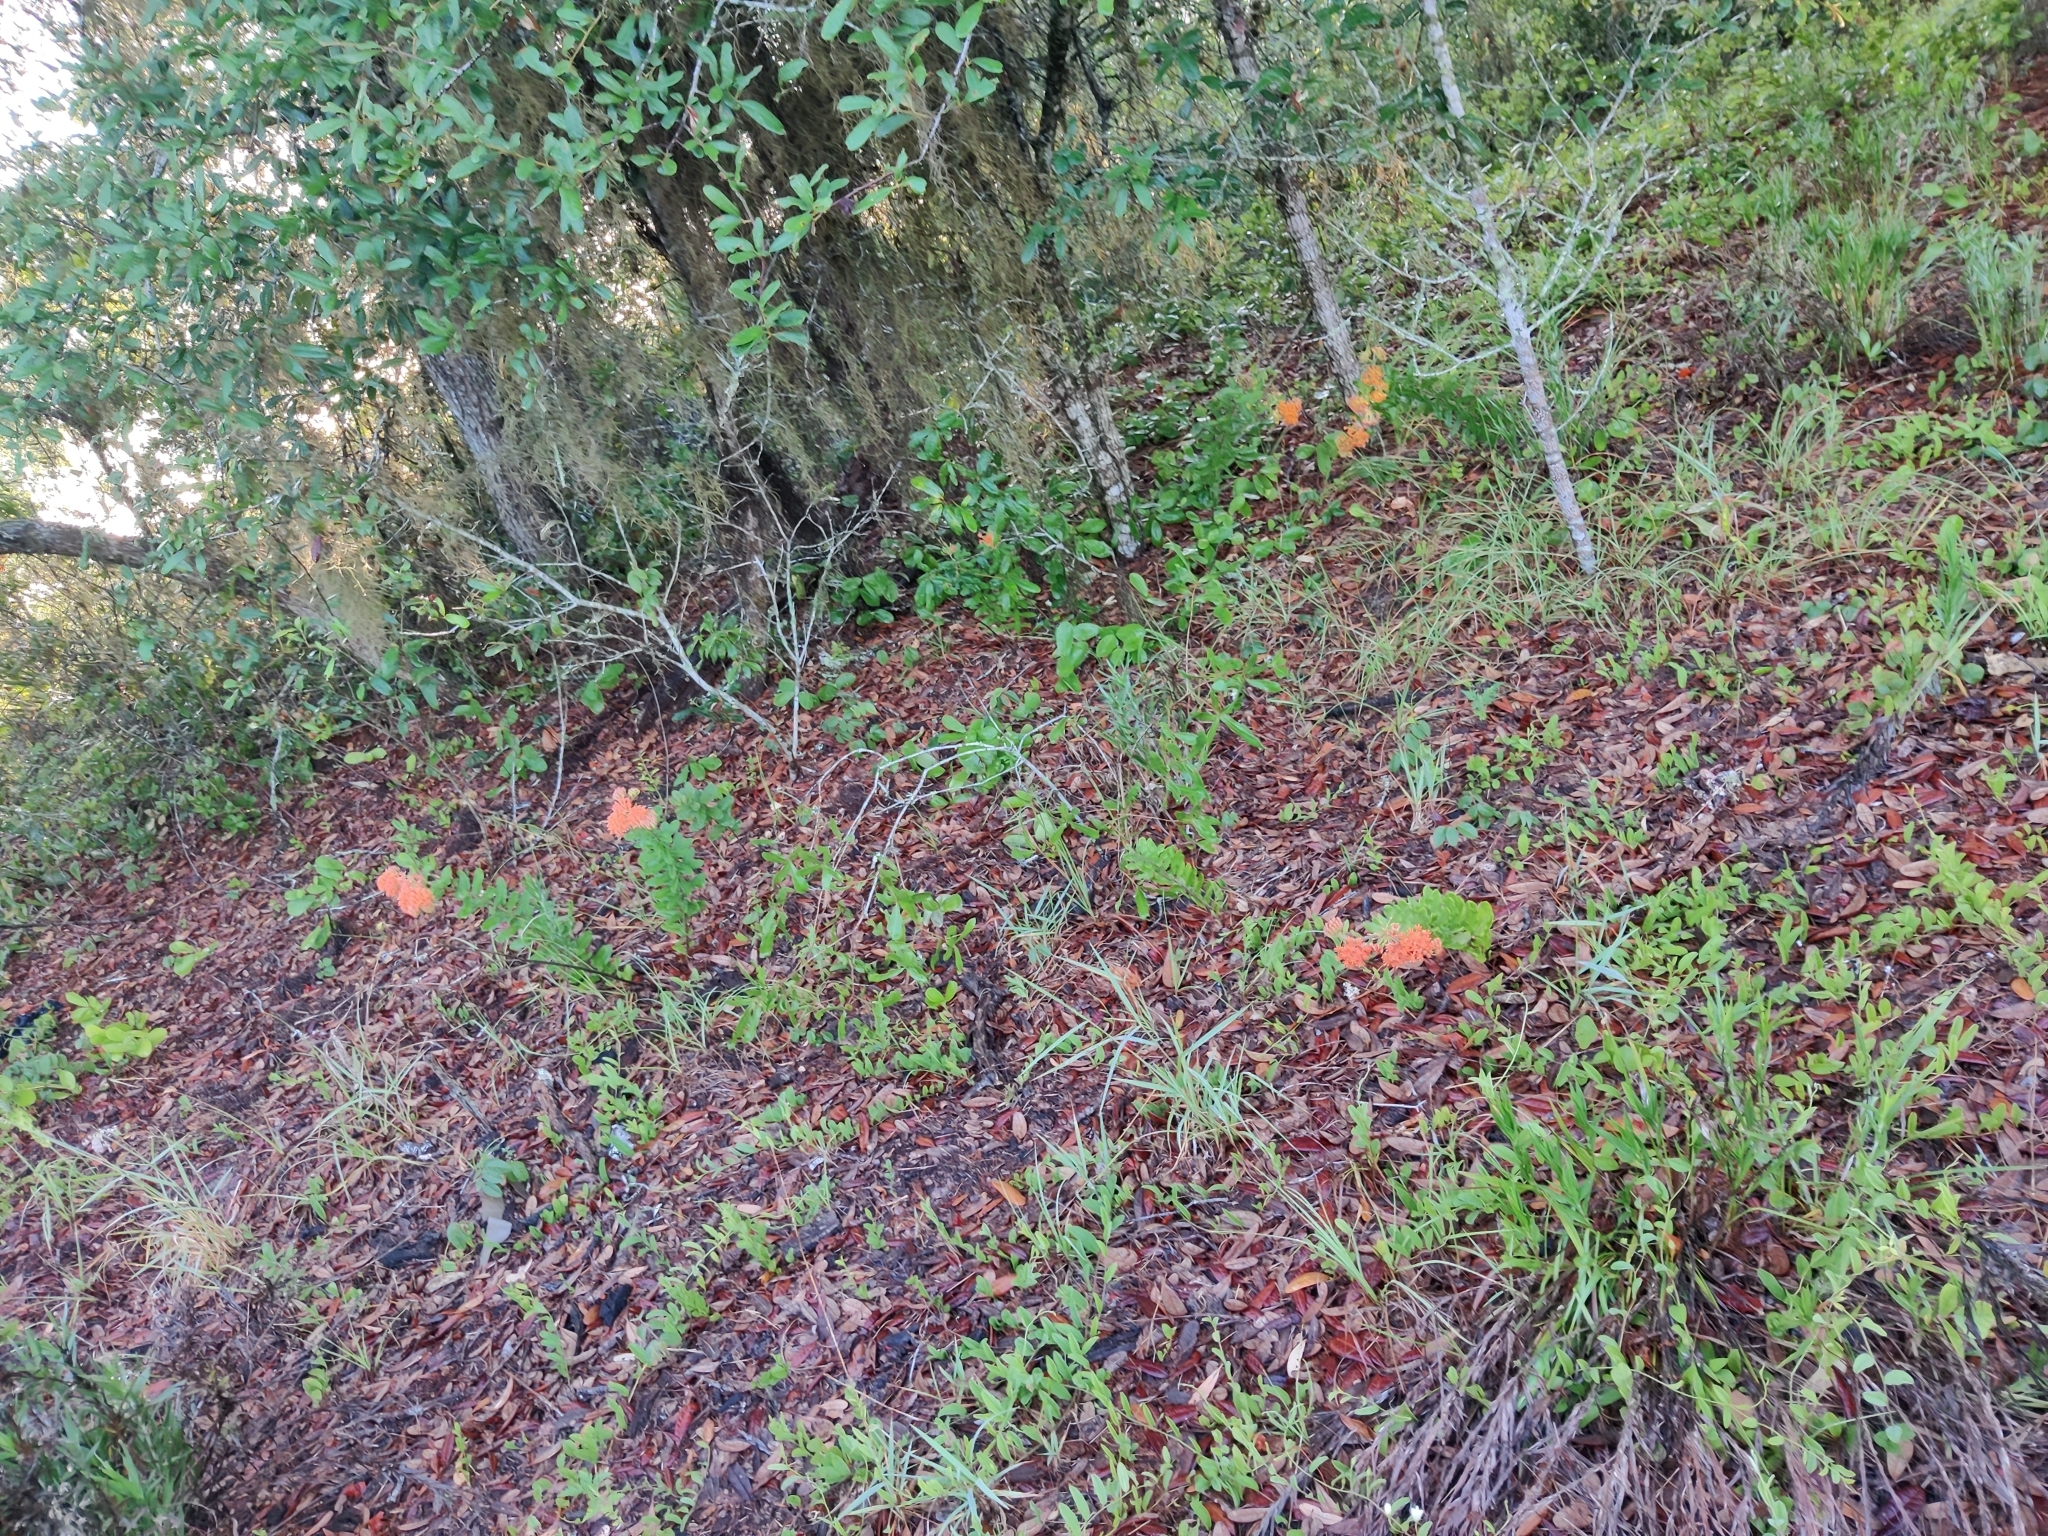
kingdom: Plantae
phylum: Tracheophyta
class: Magnoliopsida
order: Gentianales
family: Apocynaceae
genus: Asclepias
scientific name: Asclepias tuberosa
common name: Butterfly milkweed
